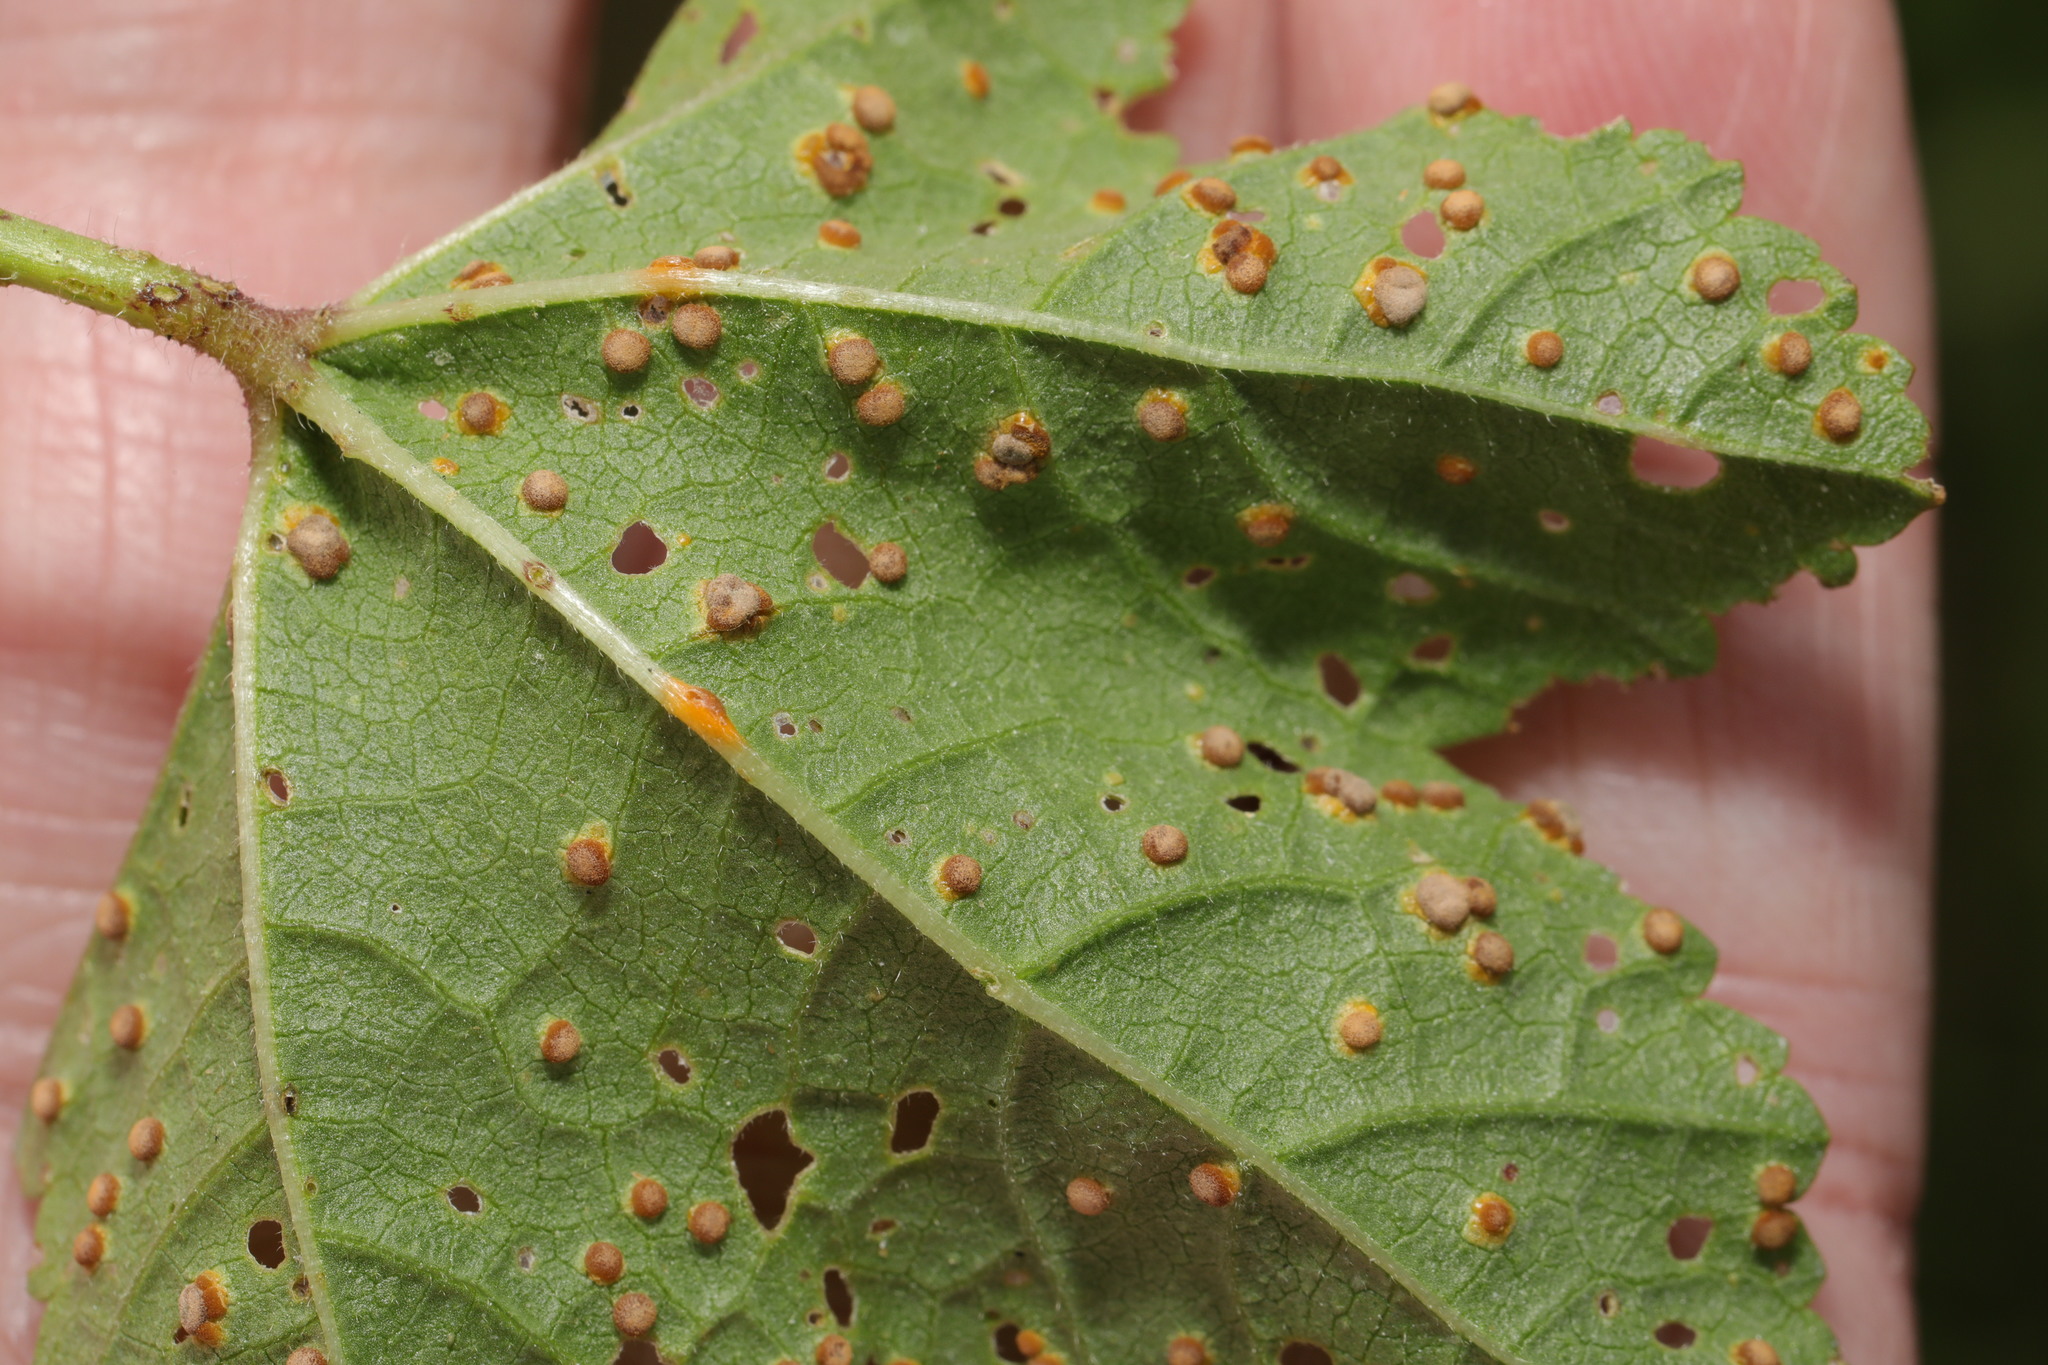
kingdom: Fungi
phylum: Basidiomycota
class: Pucciniomycetes
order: Pucciniales
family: Pucciniaceae
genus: Puccinia
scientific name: Puccinia malvacearum
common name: Hollyhock rust
